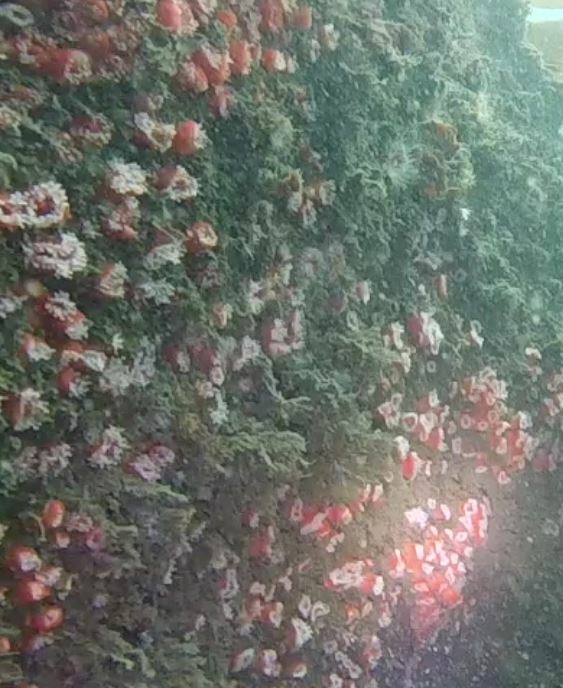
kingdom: Animalia
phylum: Cnidaria
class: Anthozoa
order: Corallimorpharia
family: Corallimorphidae
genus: Corynactis
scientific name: Corynactis californica
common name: Strawberry corallimorpharian
